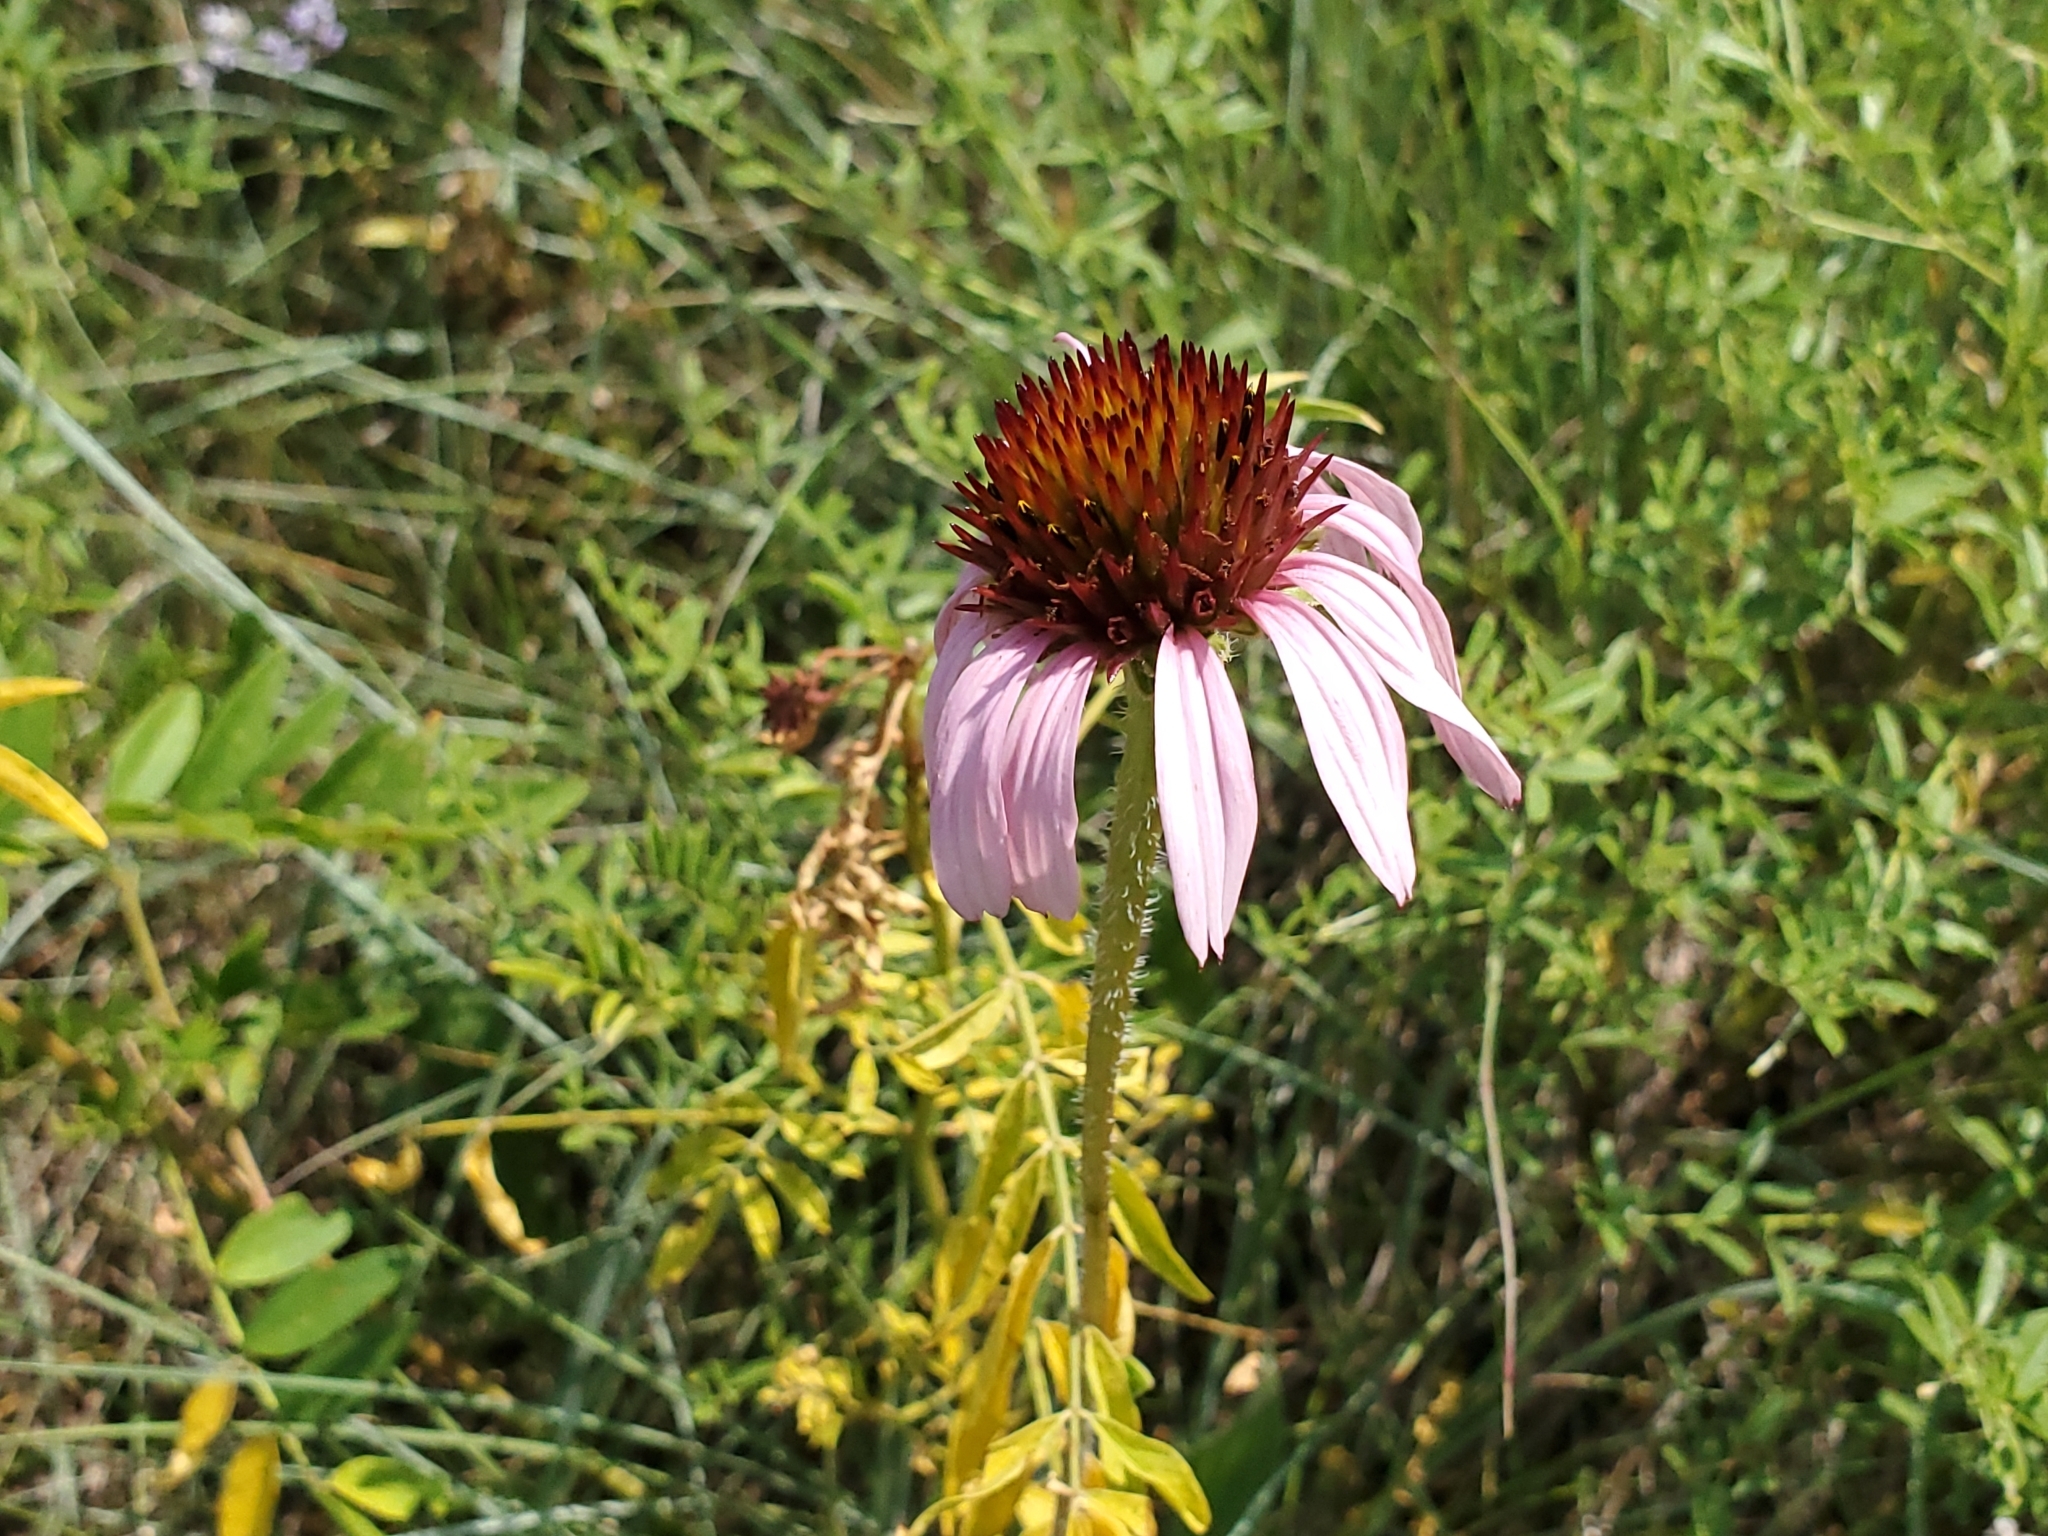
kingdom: Plantae
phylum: Tracheophyta
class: Magnoliopsida
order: Asterales
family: Asteraceae
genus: Echinacea
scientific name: Echinacea angustifolia
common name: Black-sampson echinacea
